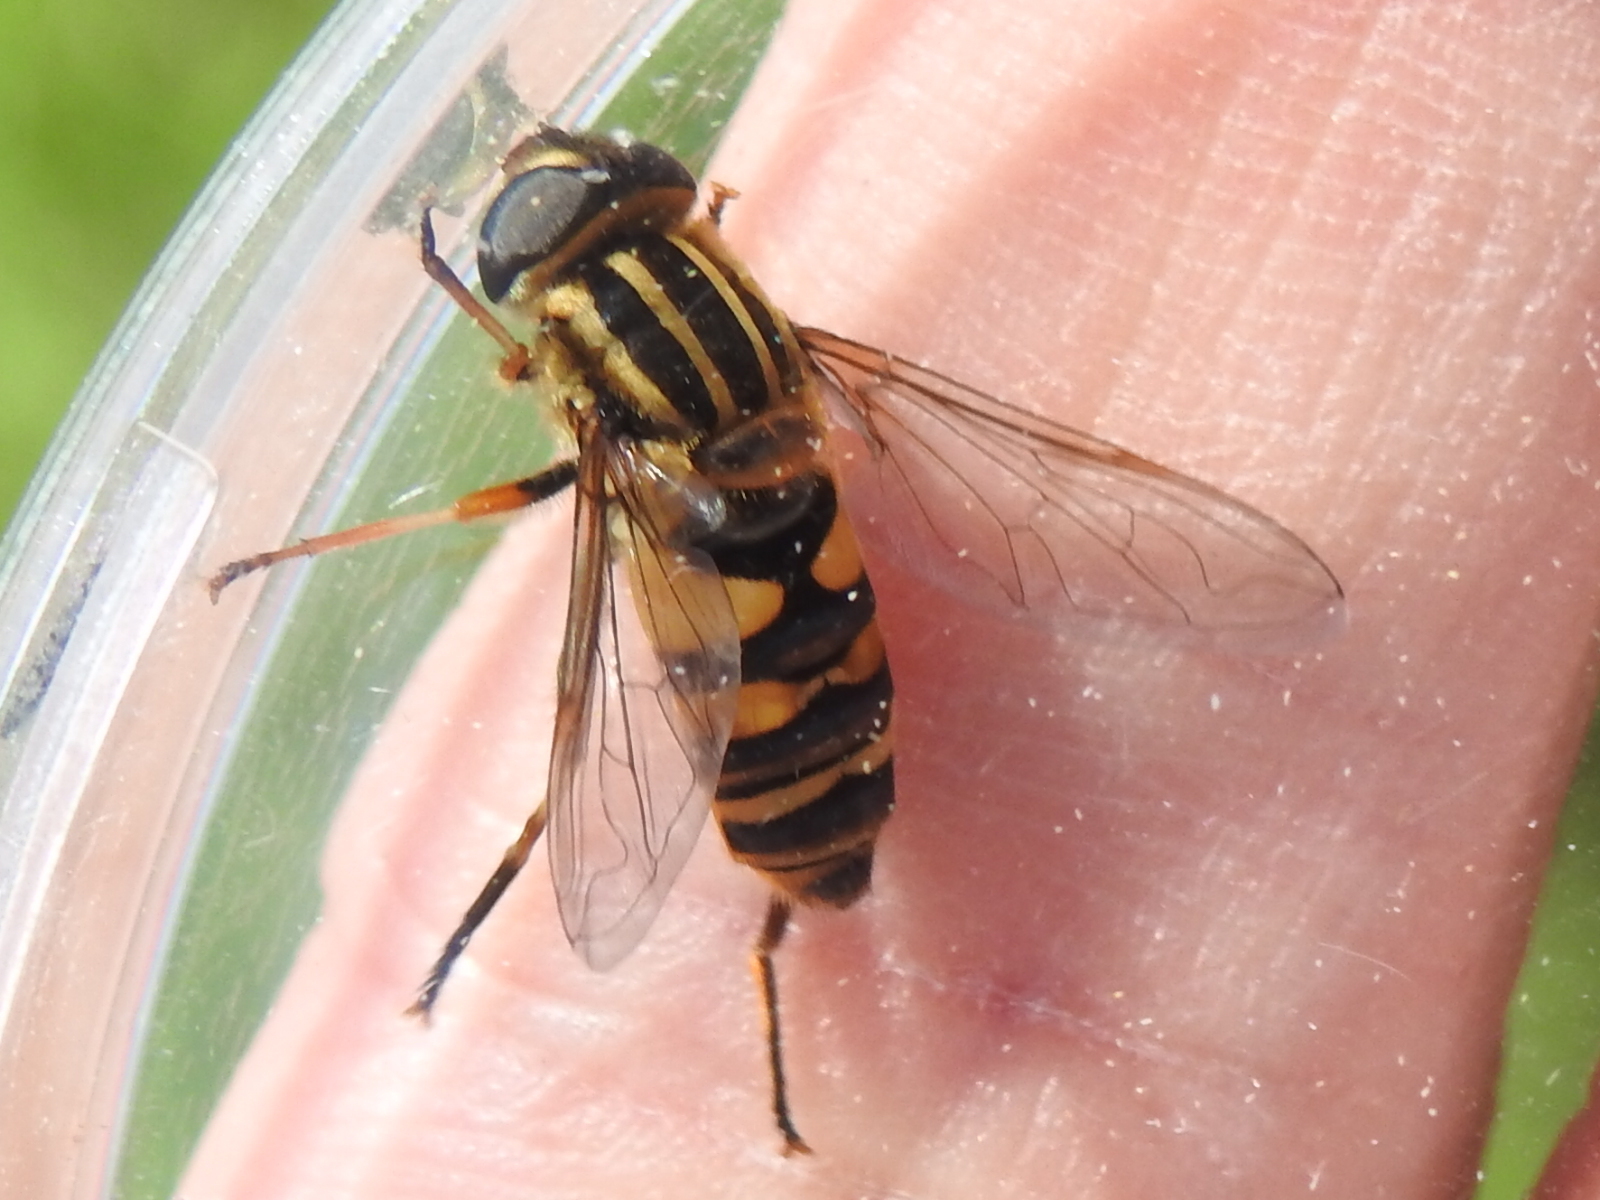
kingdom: Animalia
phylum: Arthropoda
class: Insecta
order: Diptera
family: Syrphidae
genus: Helophilus
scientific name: Helophilus fasciatus
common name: Narrow-headed marsh fly
